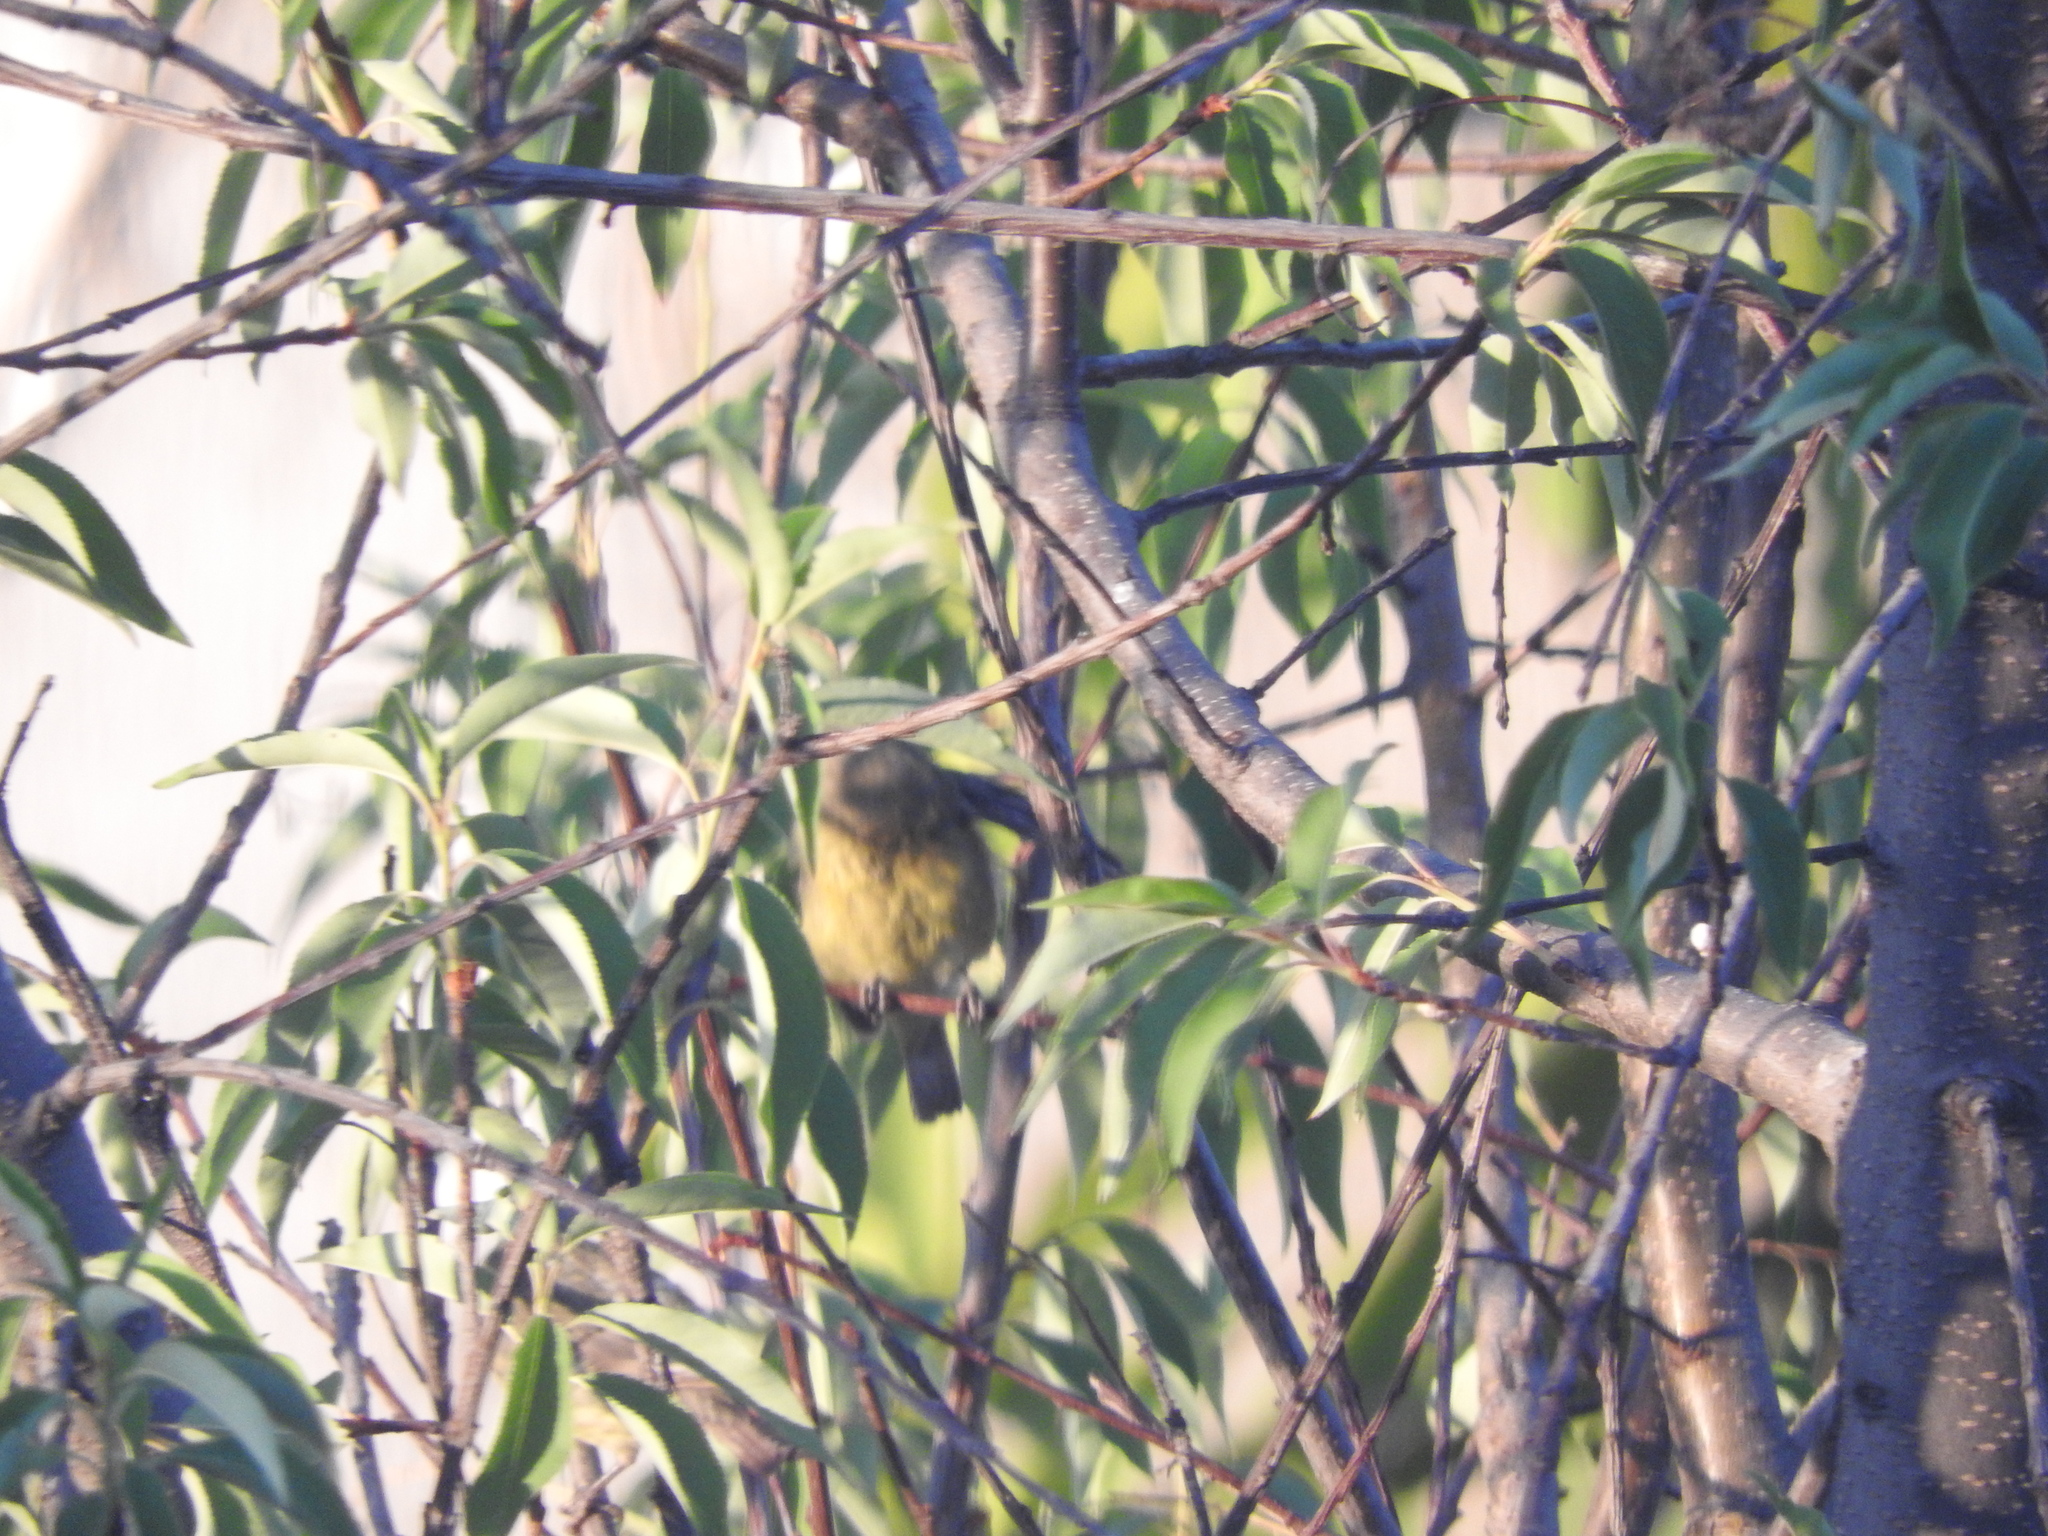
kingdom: Animalia
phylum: Chordata
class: Aves
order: Passeriformes
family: Fringillidae
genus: Spinus
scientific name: Spinus psaltria
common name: Lesser goldfinch
